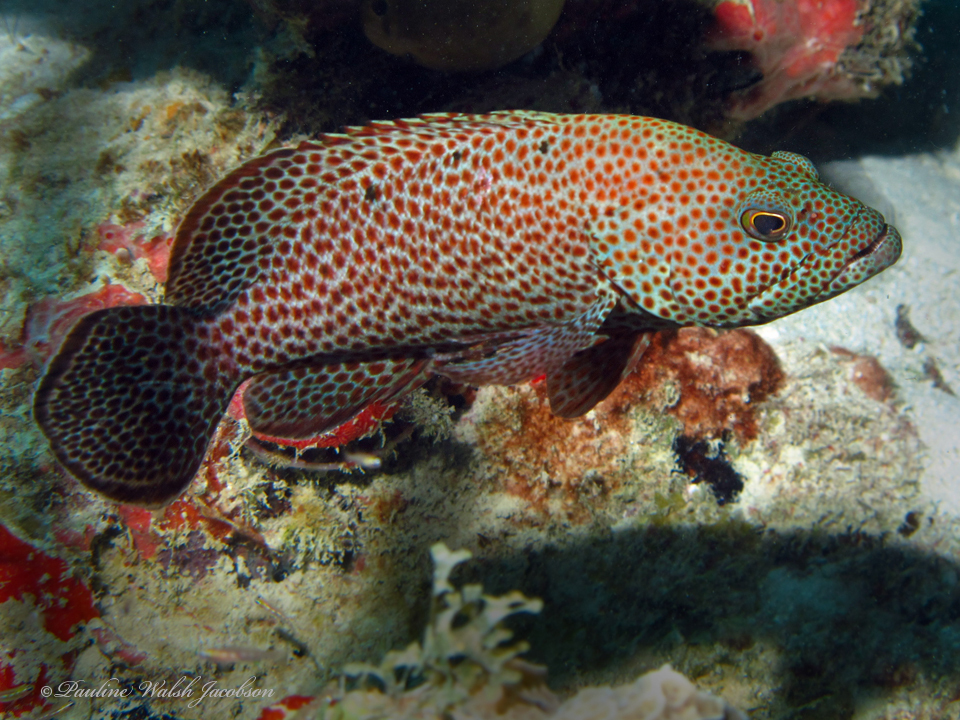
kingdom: Animalia
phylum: Chordata
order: Perciformes
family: Serranidae
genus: Cephalopholis
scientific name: Cephalopholis cruentata
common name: Graysby
